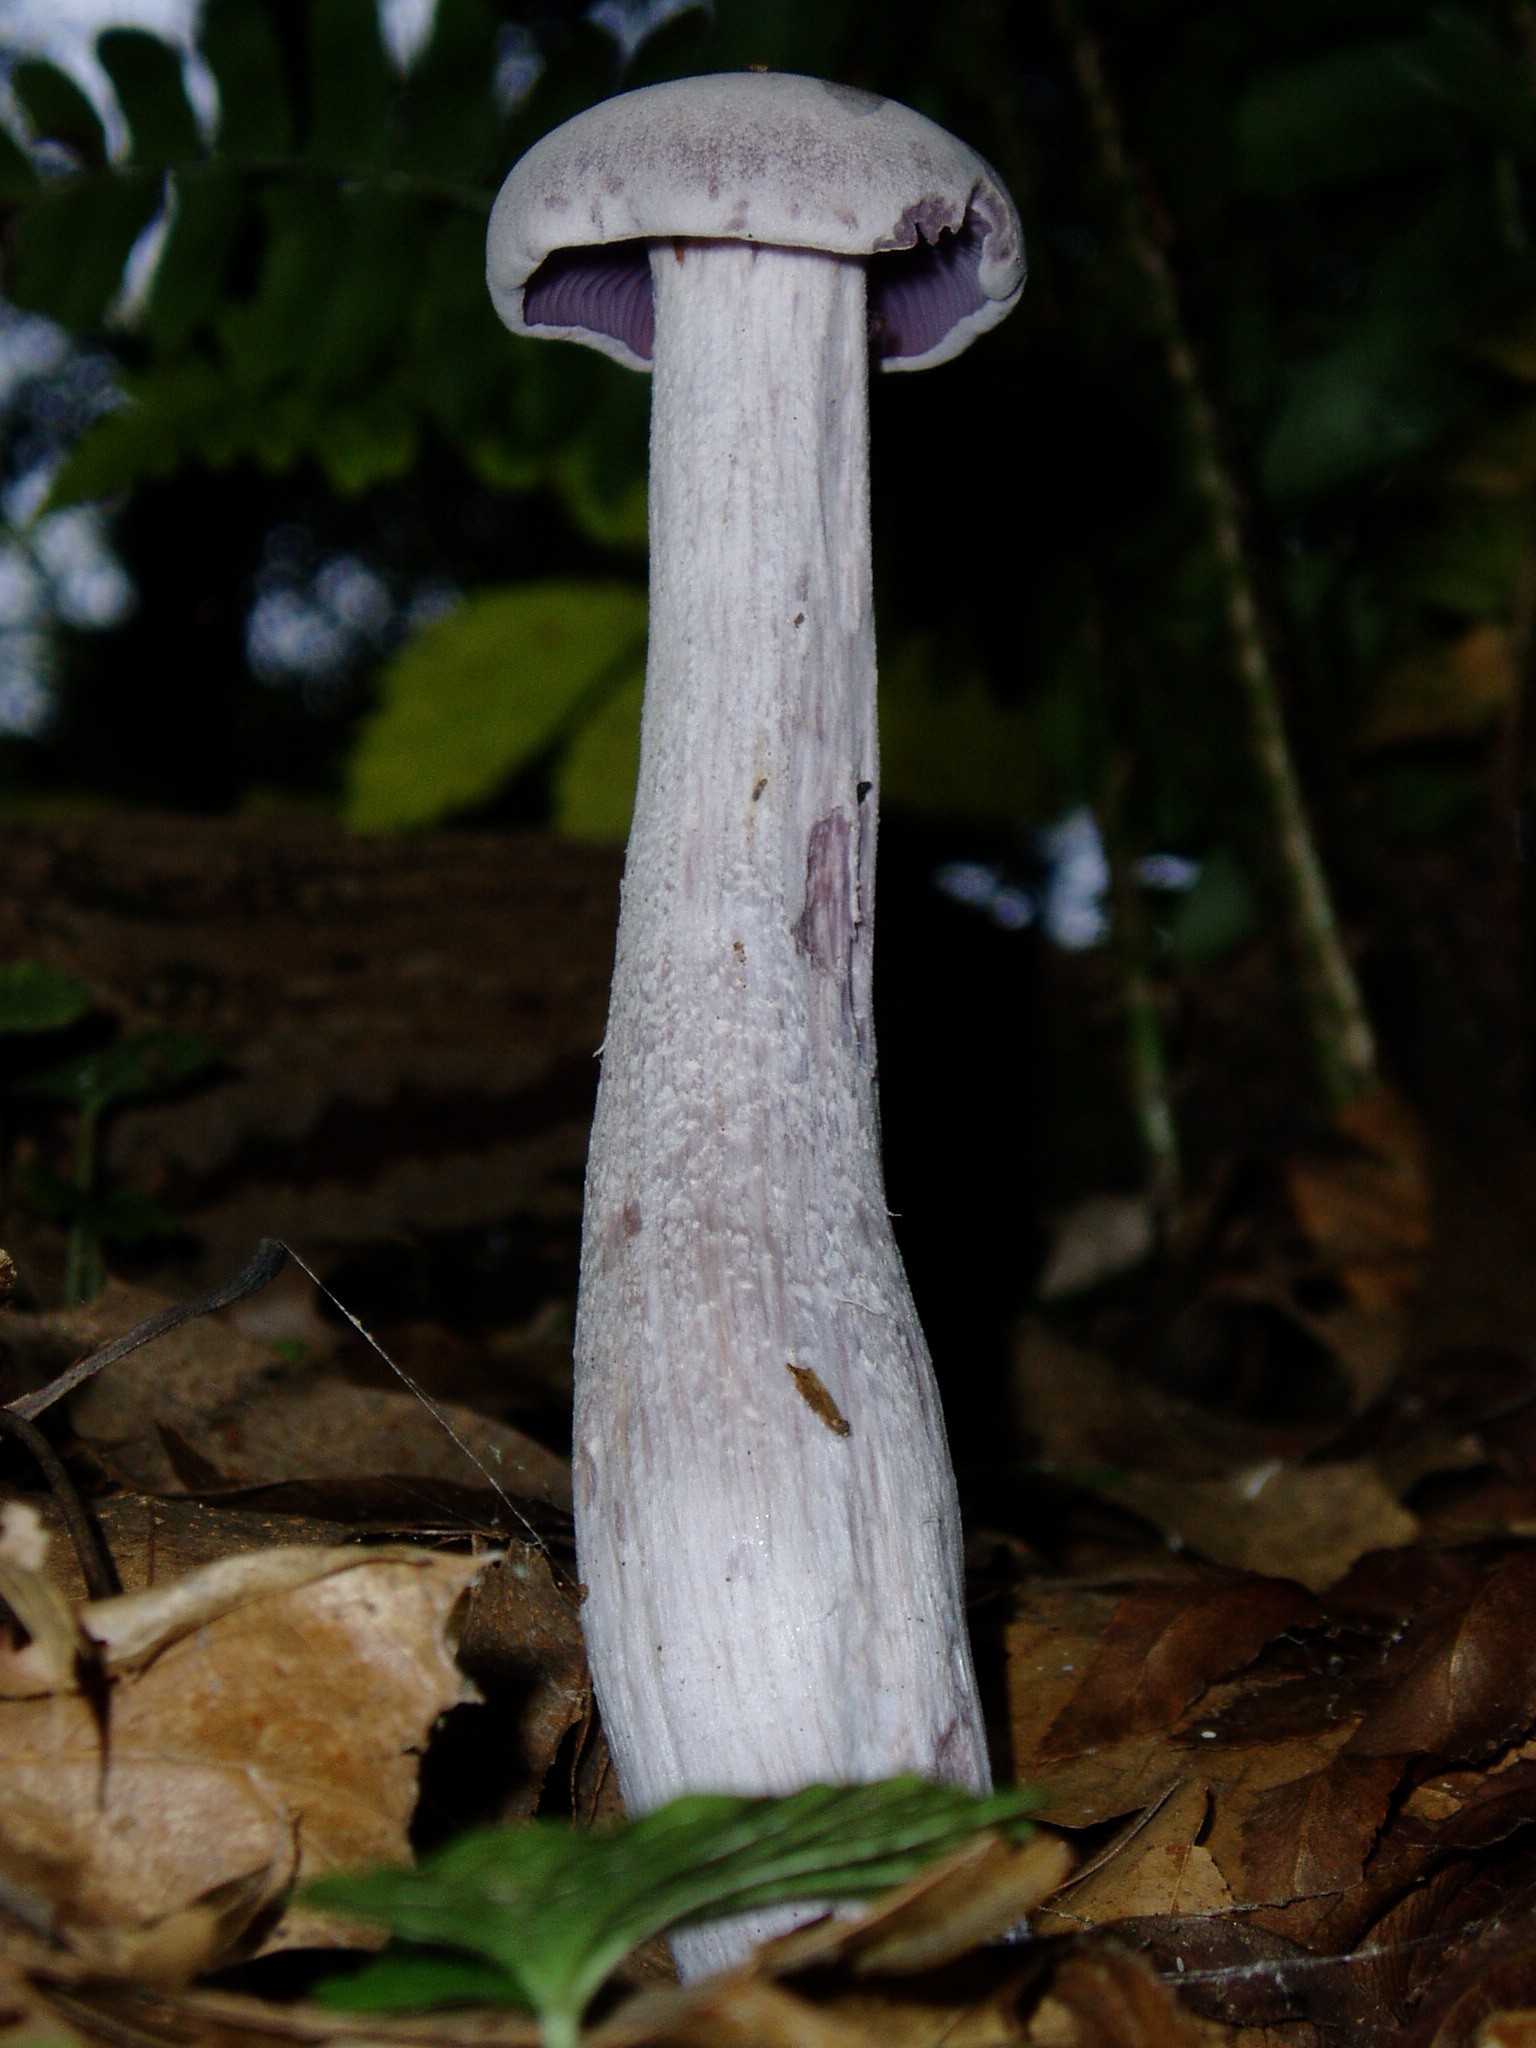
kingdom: Fungi
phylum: Basidiomycota
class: Agaricomycetes
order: Agaricales
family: Hydnangiaceae
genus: Laccaria
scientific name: Laccaria ochropurpurea
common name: Purple laccaria
